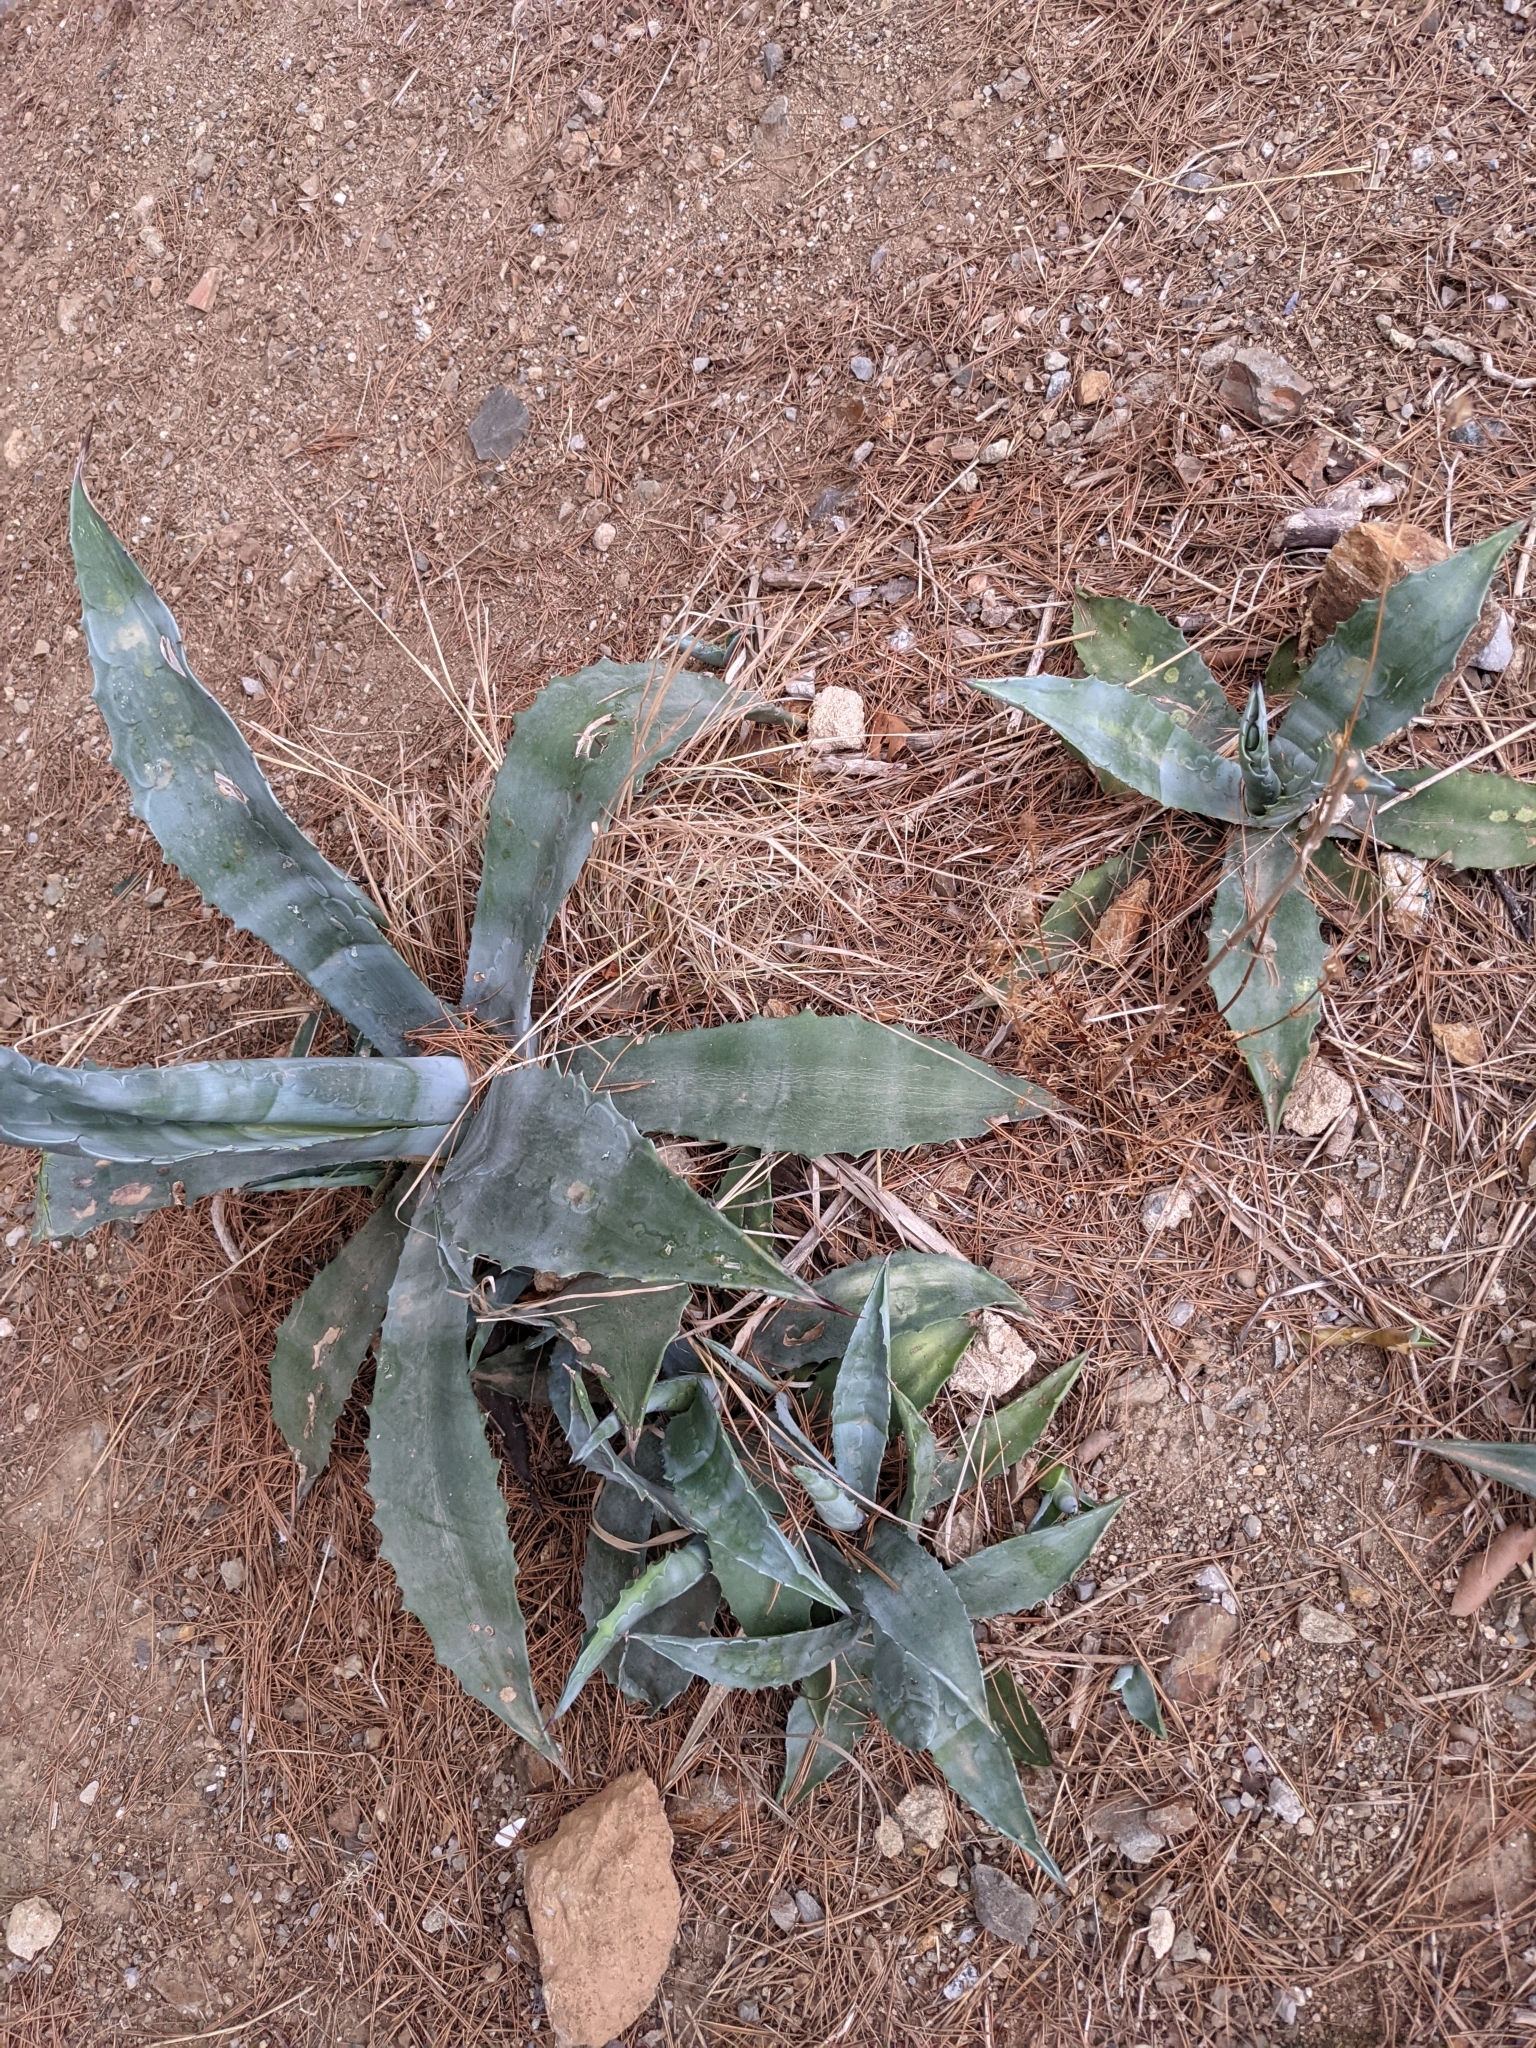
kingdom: Plantae
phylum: Tracheophyta
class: Liliopsida
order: Asparagales
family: Asparagaceae
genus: Agave
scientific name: Agave americana
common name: Centuryplant
